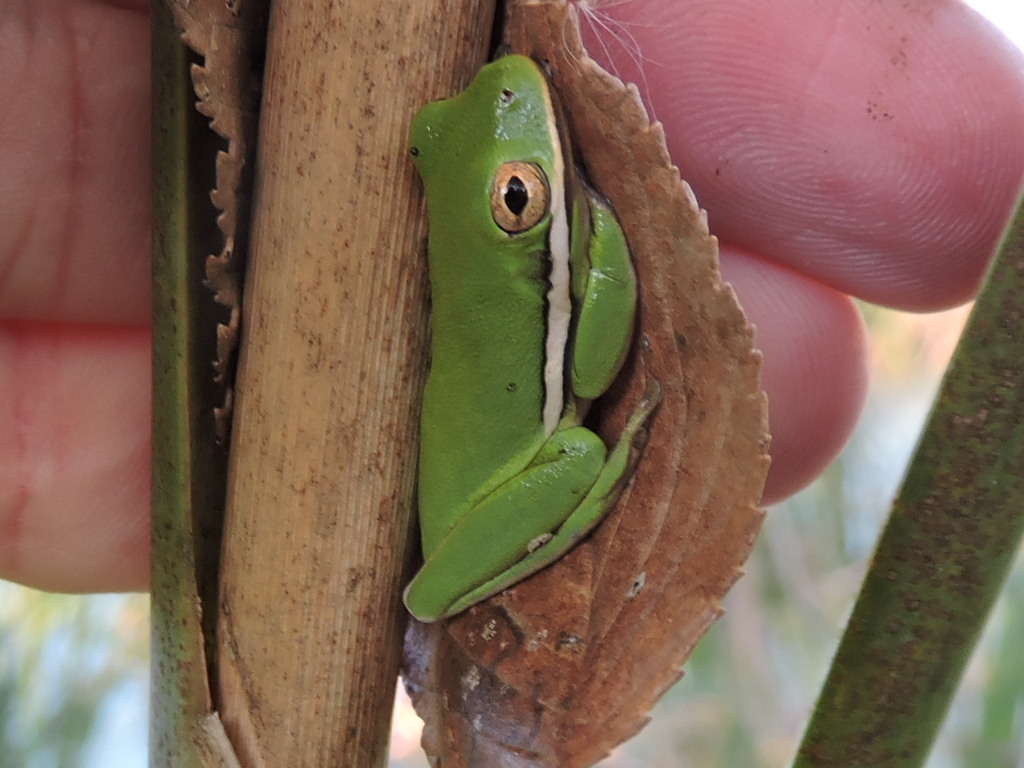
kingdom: Animalia
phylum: Chordata
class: Amphibia
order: Anura
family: Hylidae
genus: Dryophytes
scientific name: Dryophytes cinereus
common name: Green treefrog
